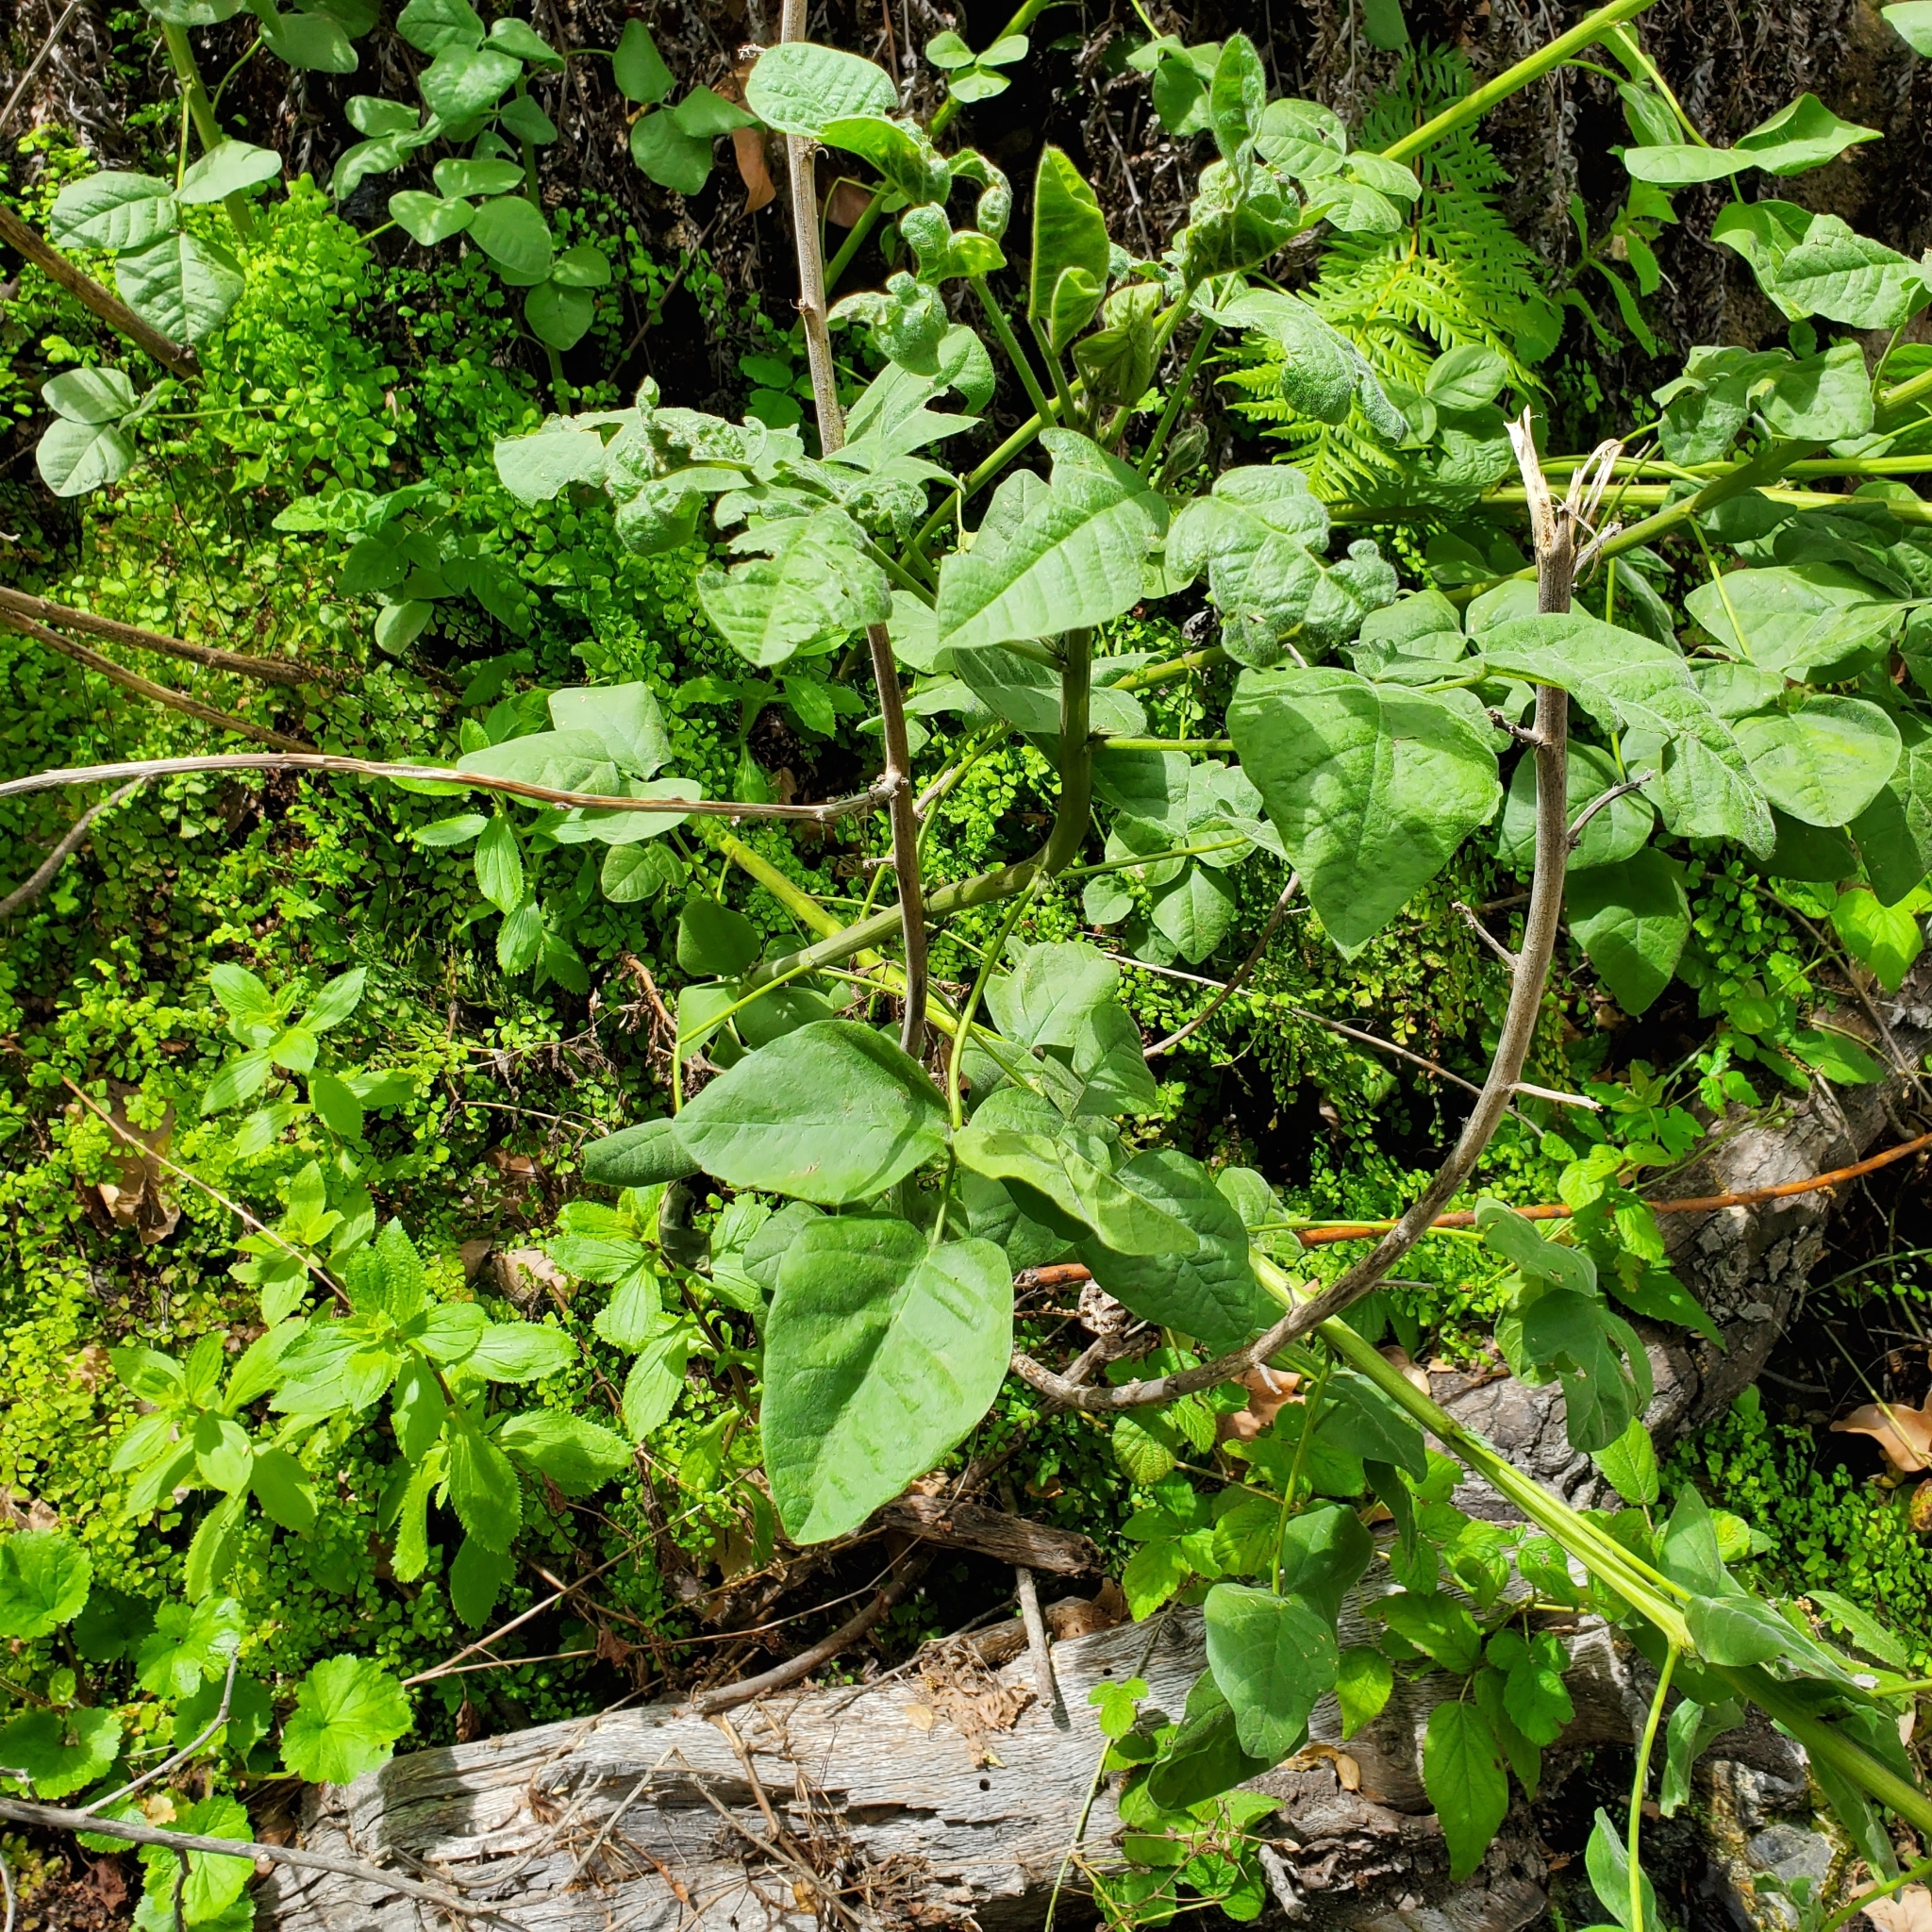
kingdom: Plantae
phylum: Tracheophyta
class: Magnoliopsida
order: Fabales
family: Fabaceae
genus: Hoita
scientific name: Hoita macrostachya
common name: Leatherroot
